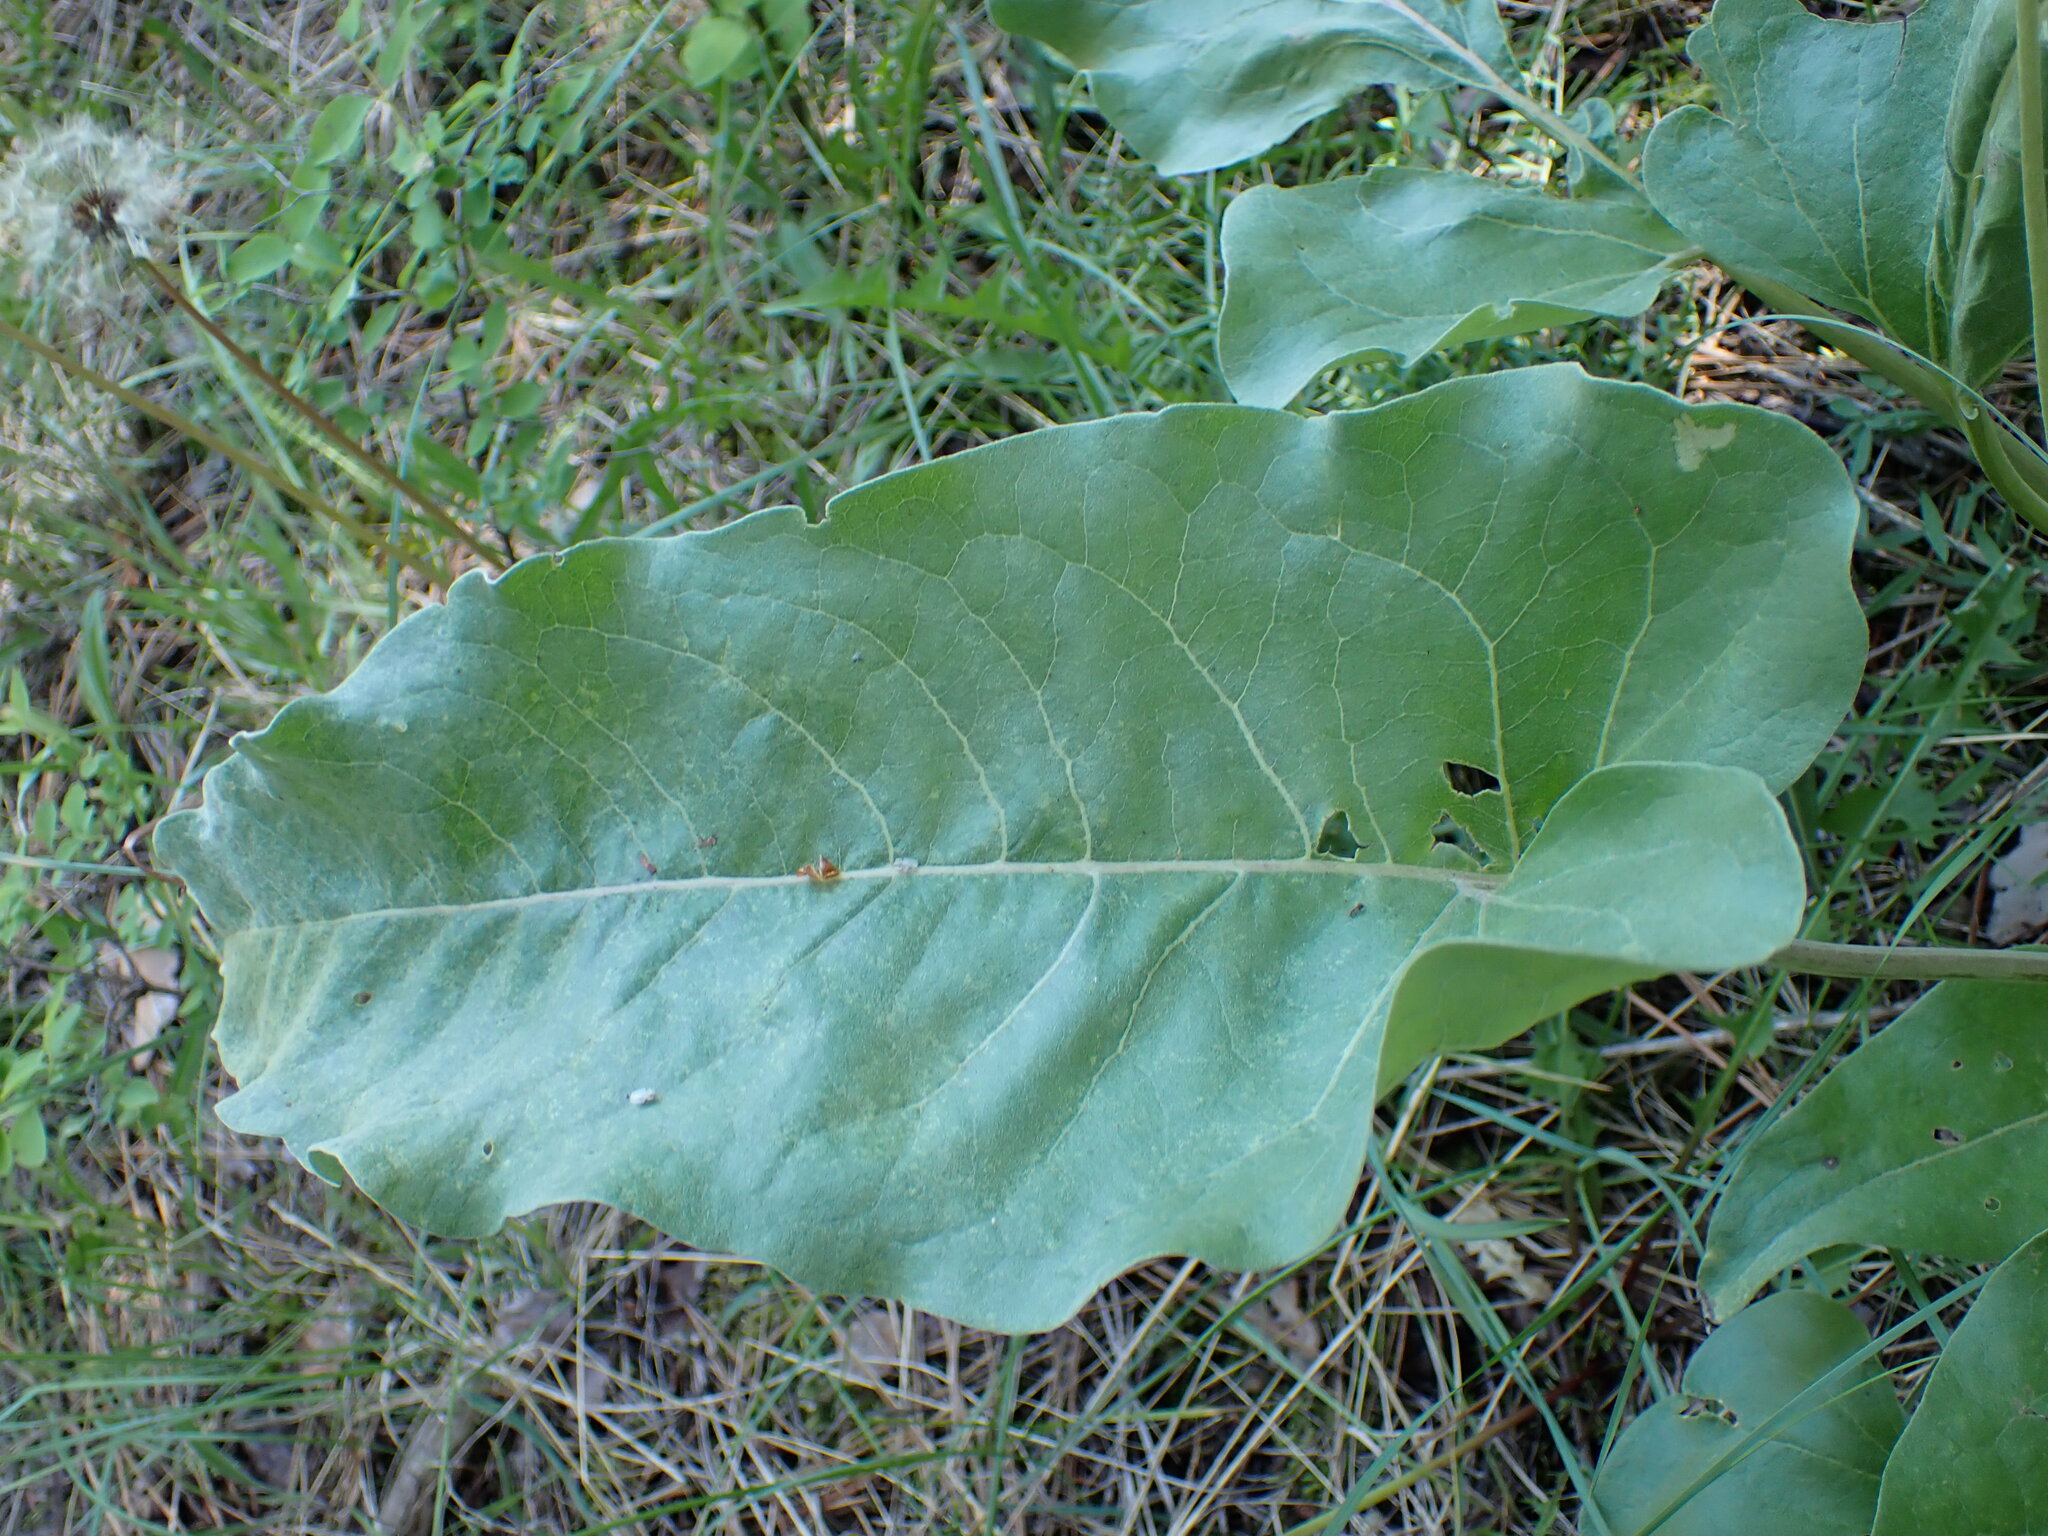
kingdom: Plantae
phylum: Tracheophyta
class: Magnoliopsida
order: Asterales
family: Asteraceae
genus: Wyethia
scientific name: Wyethia sagittata
